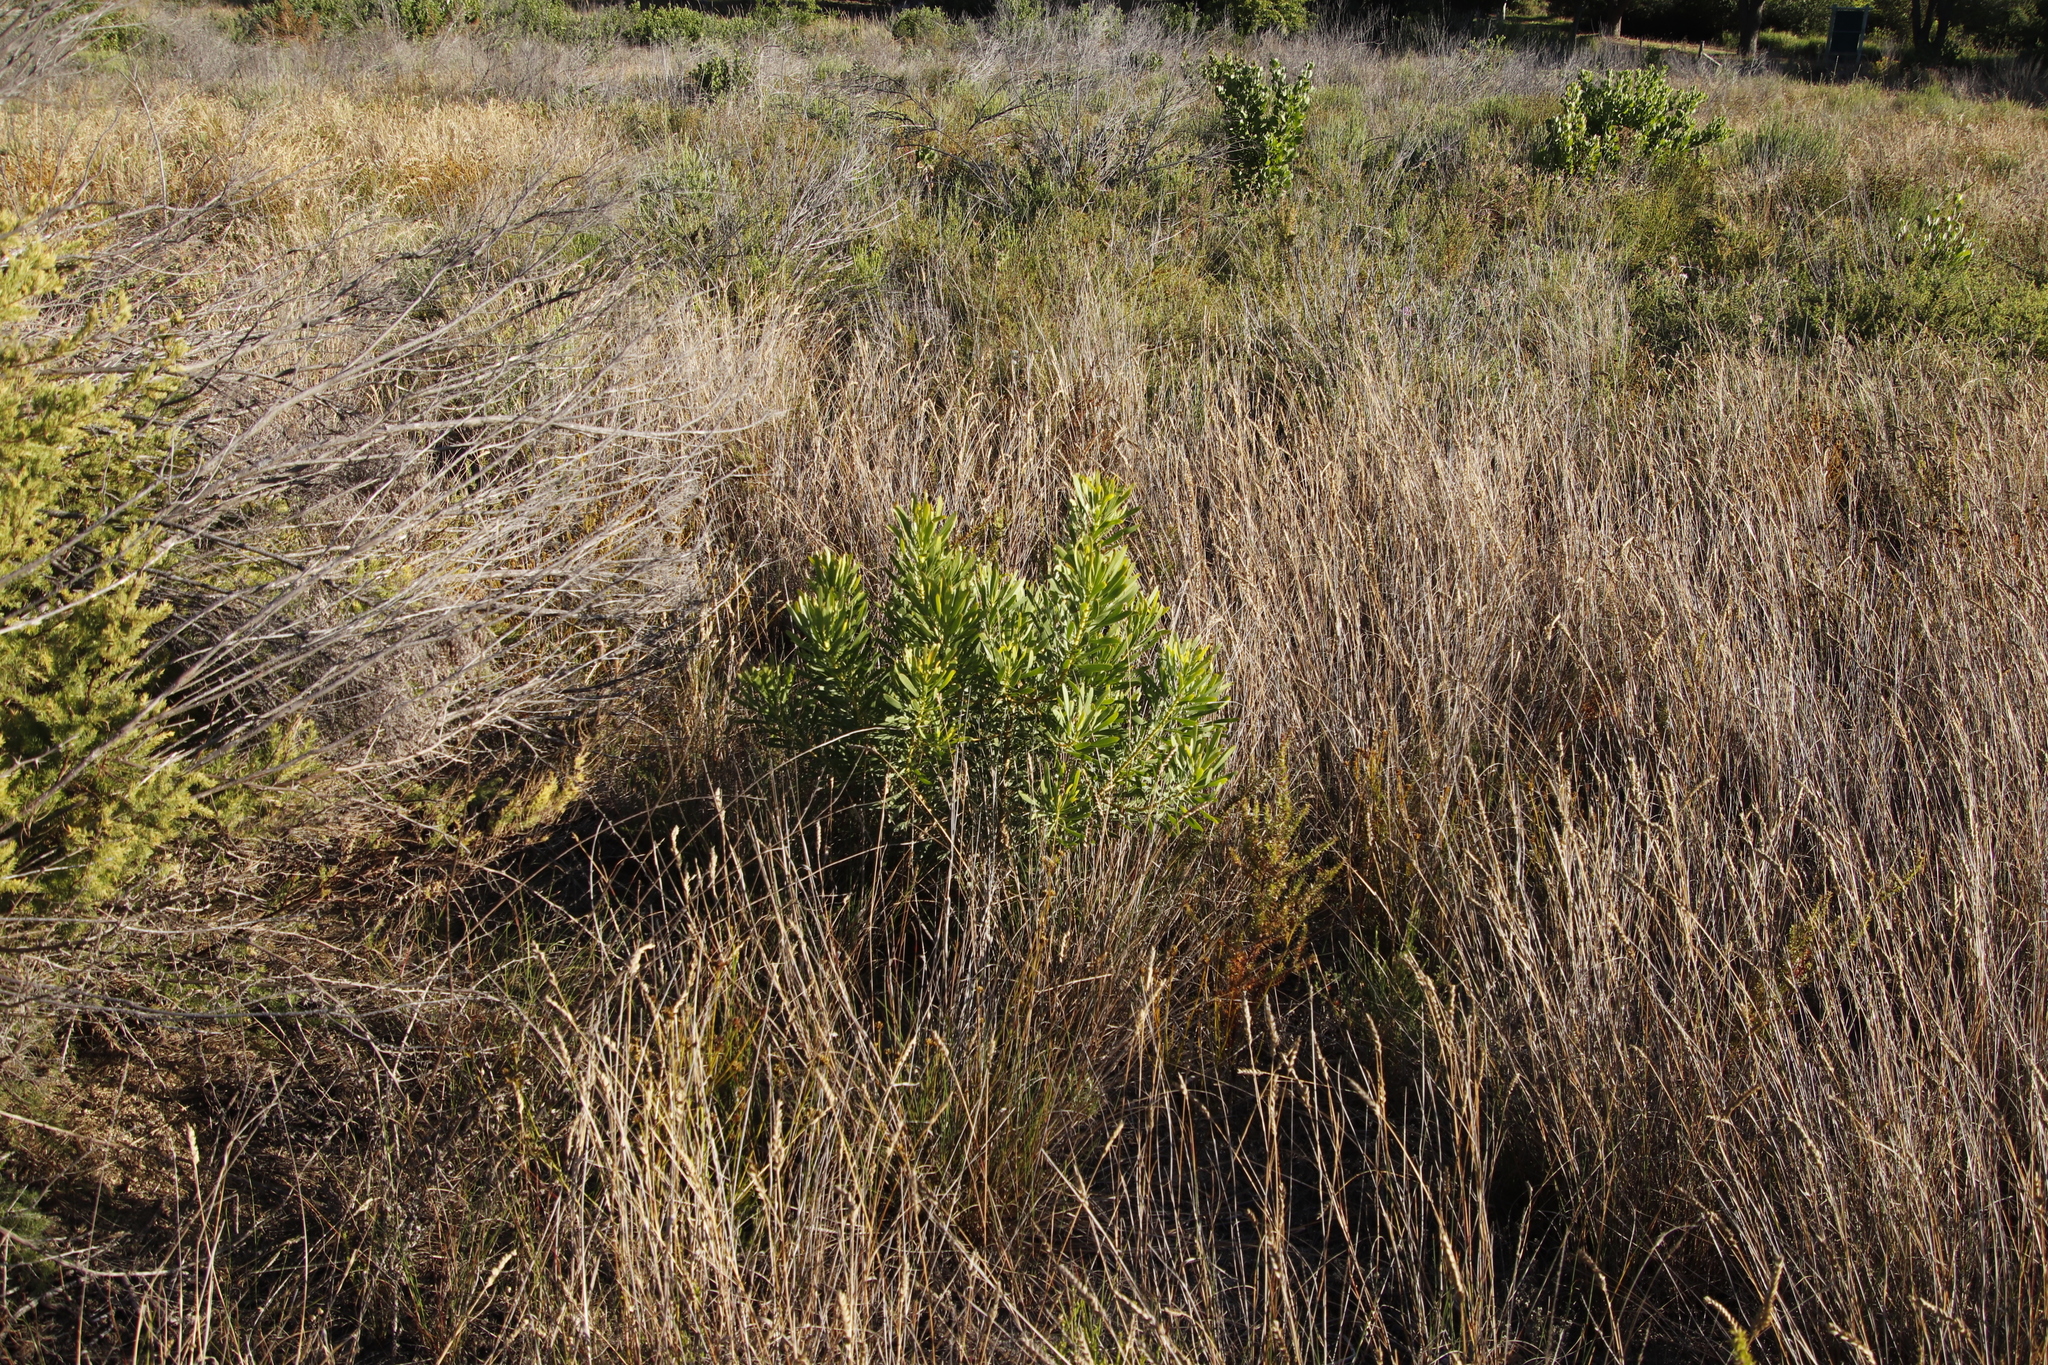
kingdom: Plantae
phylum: Tracheophyta
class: Magnoliopsida
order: Proteales
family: Proteaceae
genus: Protea
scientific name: Protea repens
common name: Sugarbush
